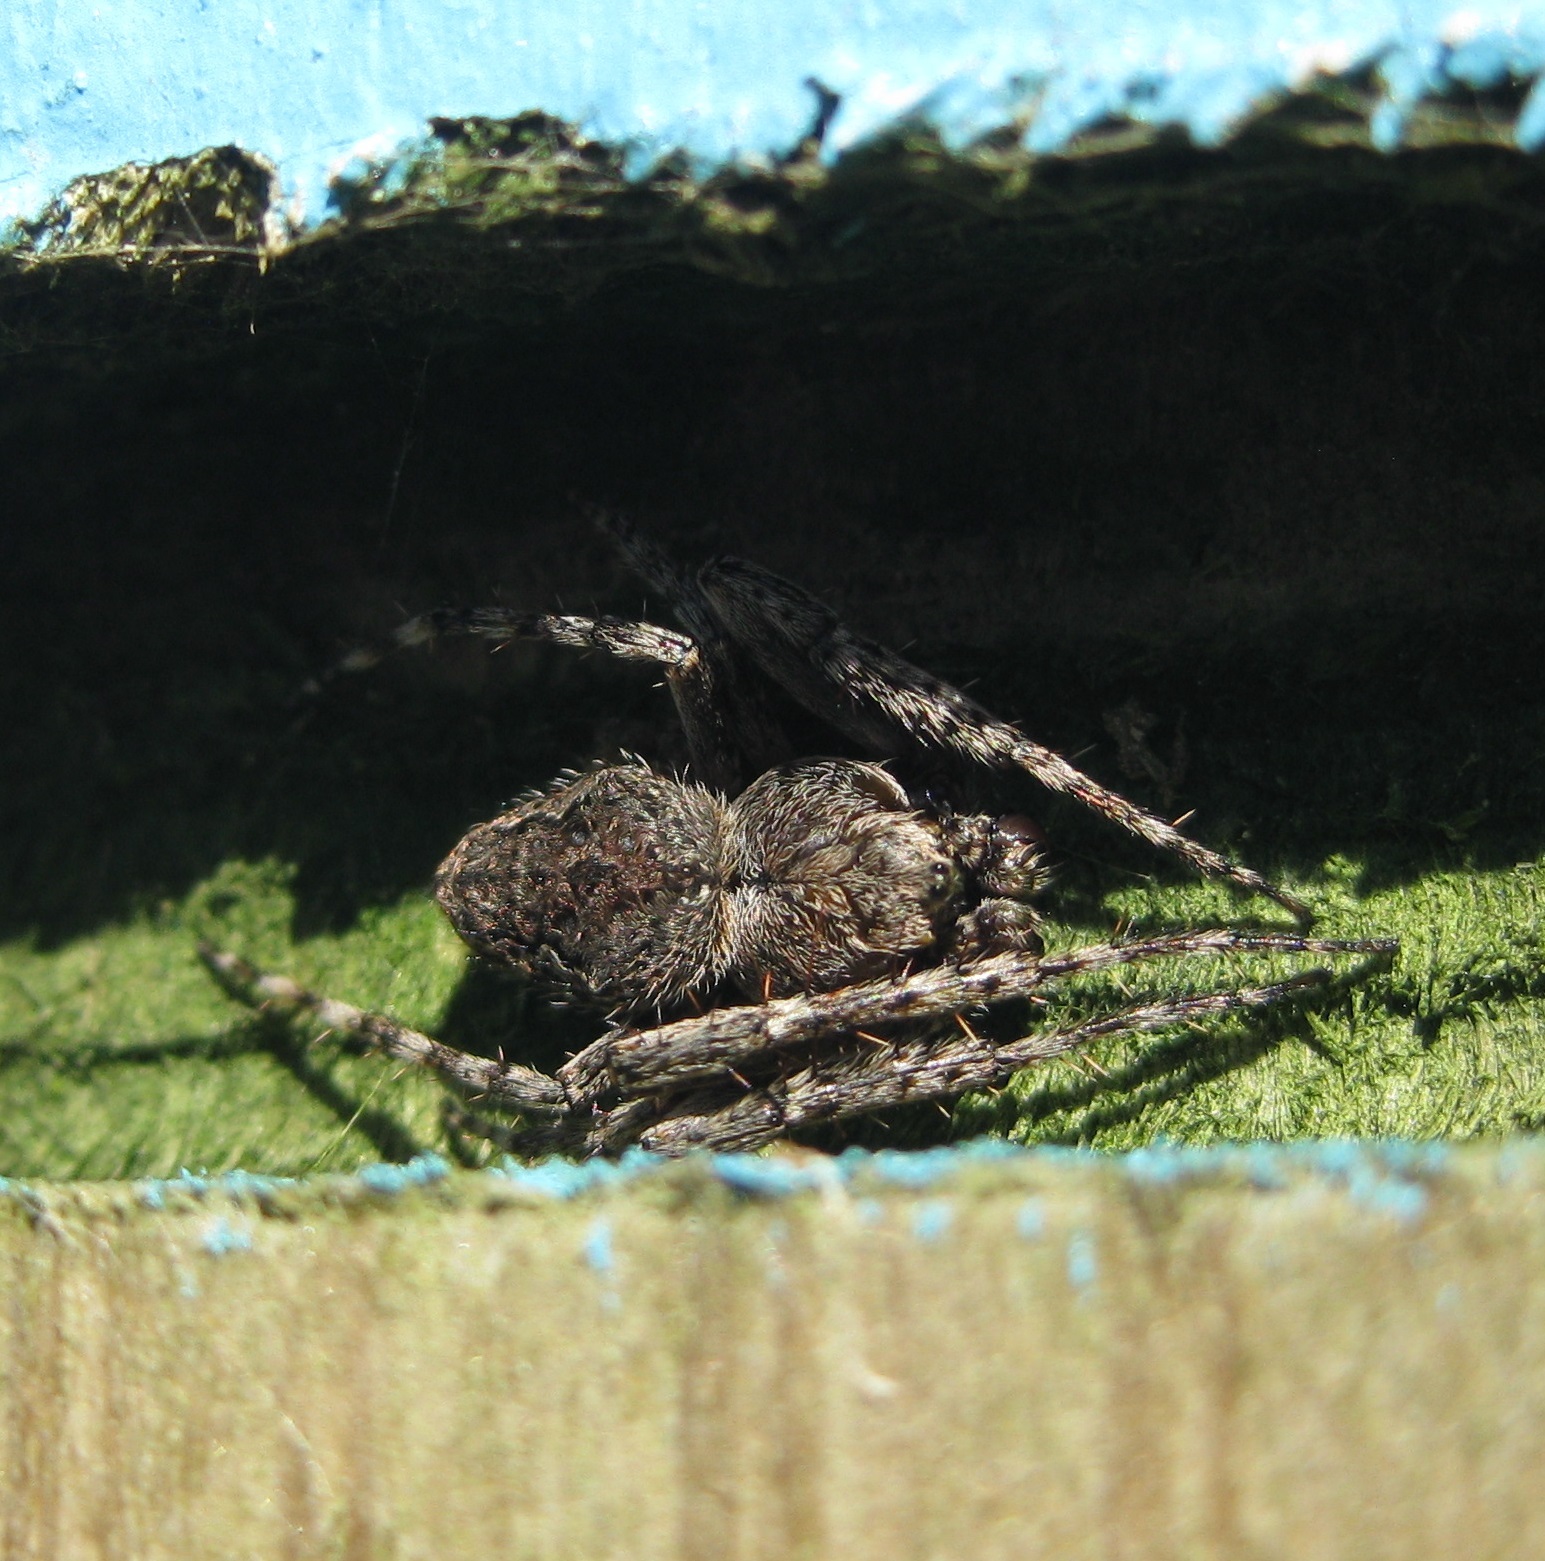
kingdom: Animalia
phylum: Arthropoda
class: Arachnida
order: Araneae
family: Araneidae
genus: Eriophora
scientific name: Eriophora pustulosa
